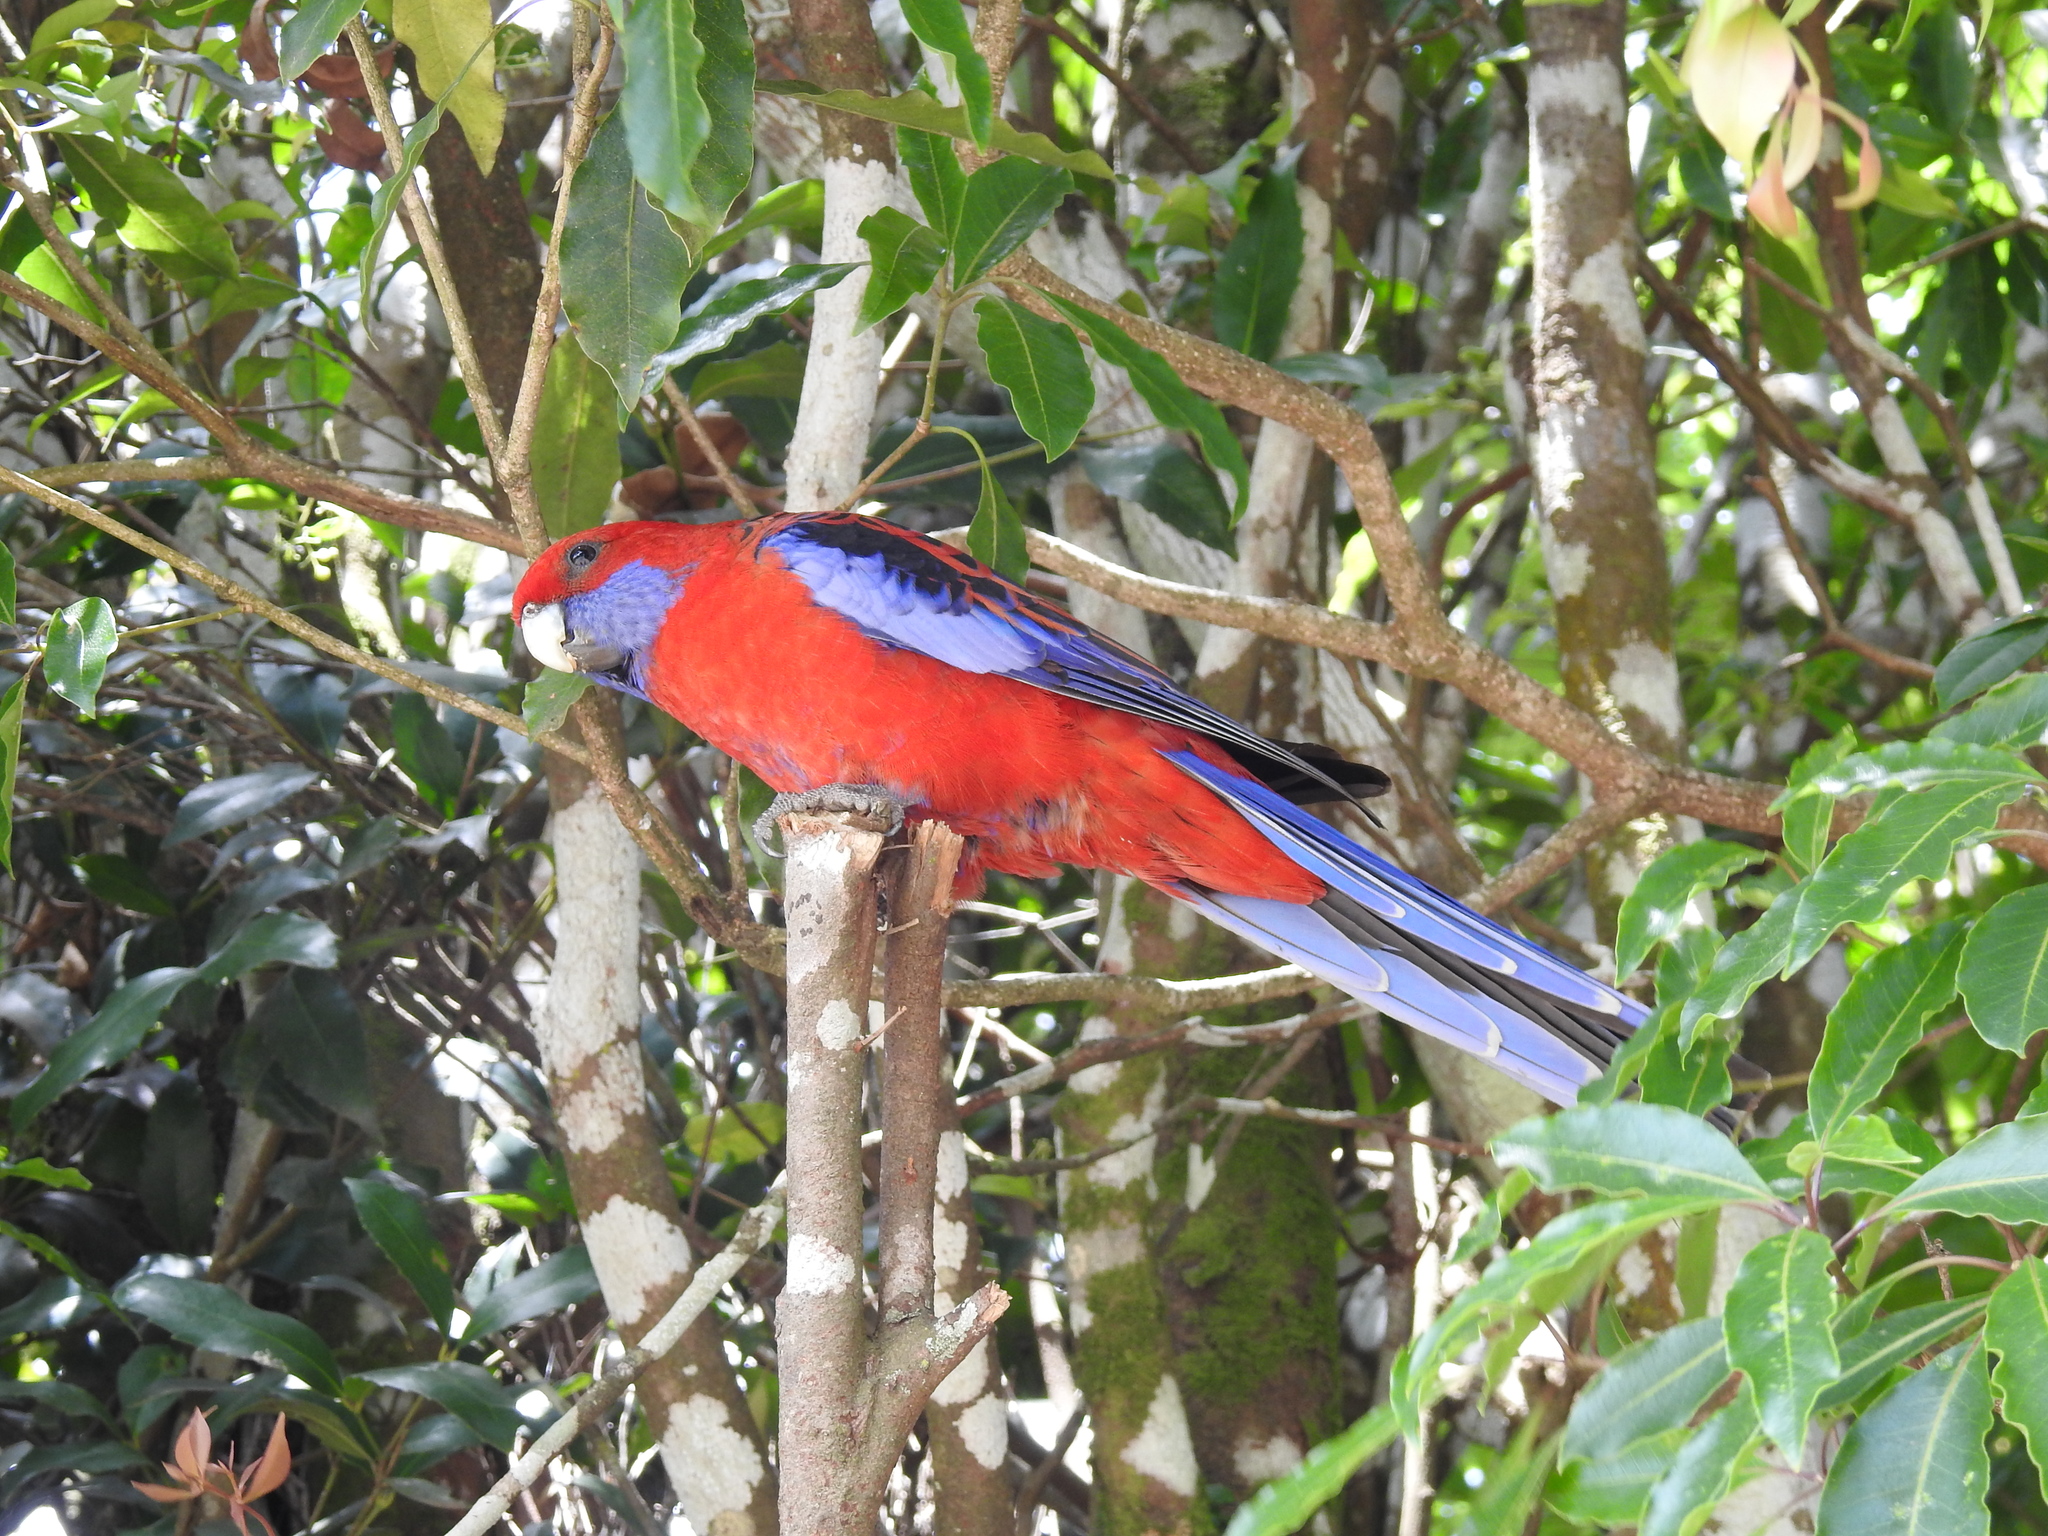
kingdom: Animalia
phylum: Chordata
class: Aves
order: Psittaciformes
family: Psittacidae
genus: Platycercus
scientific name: Platycercus elegans
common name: Crimson rosella
